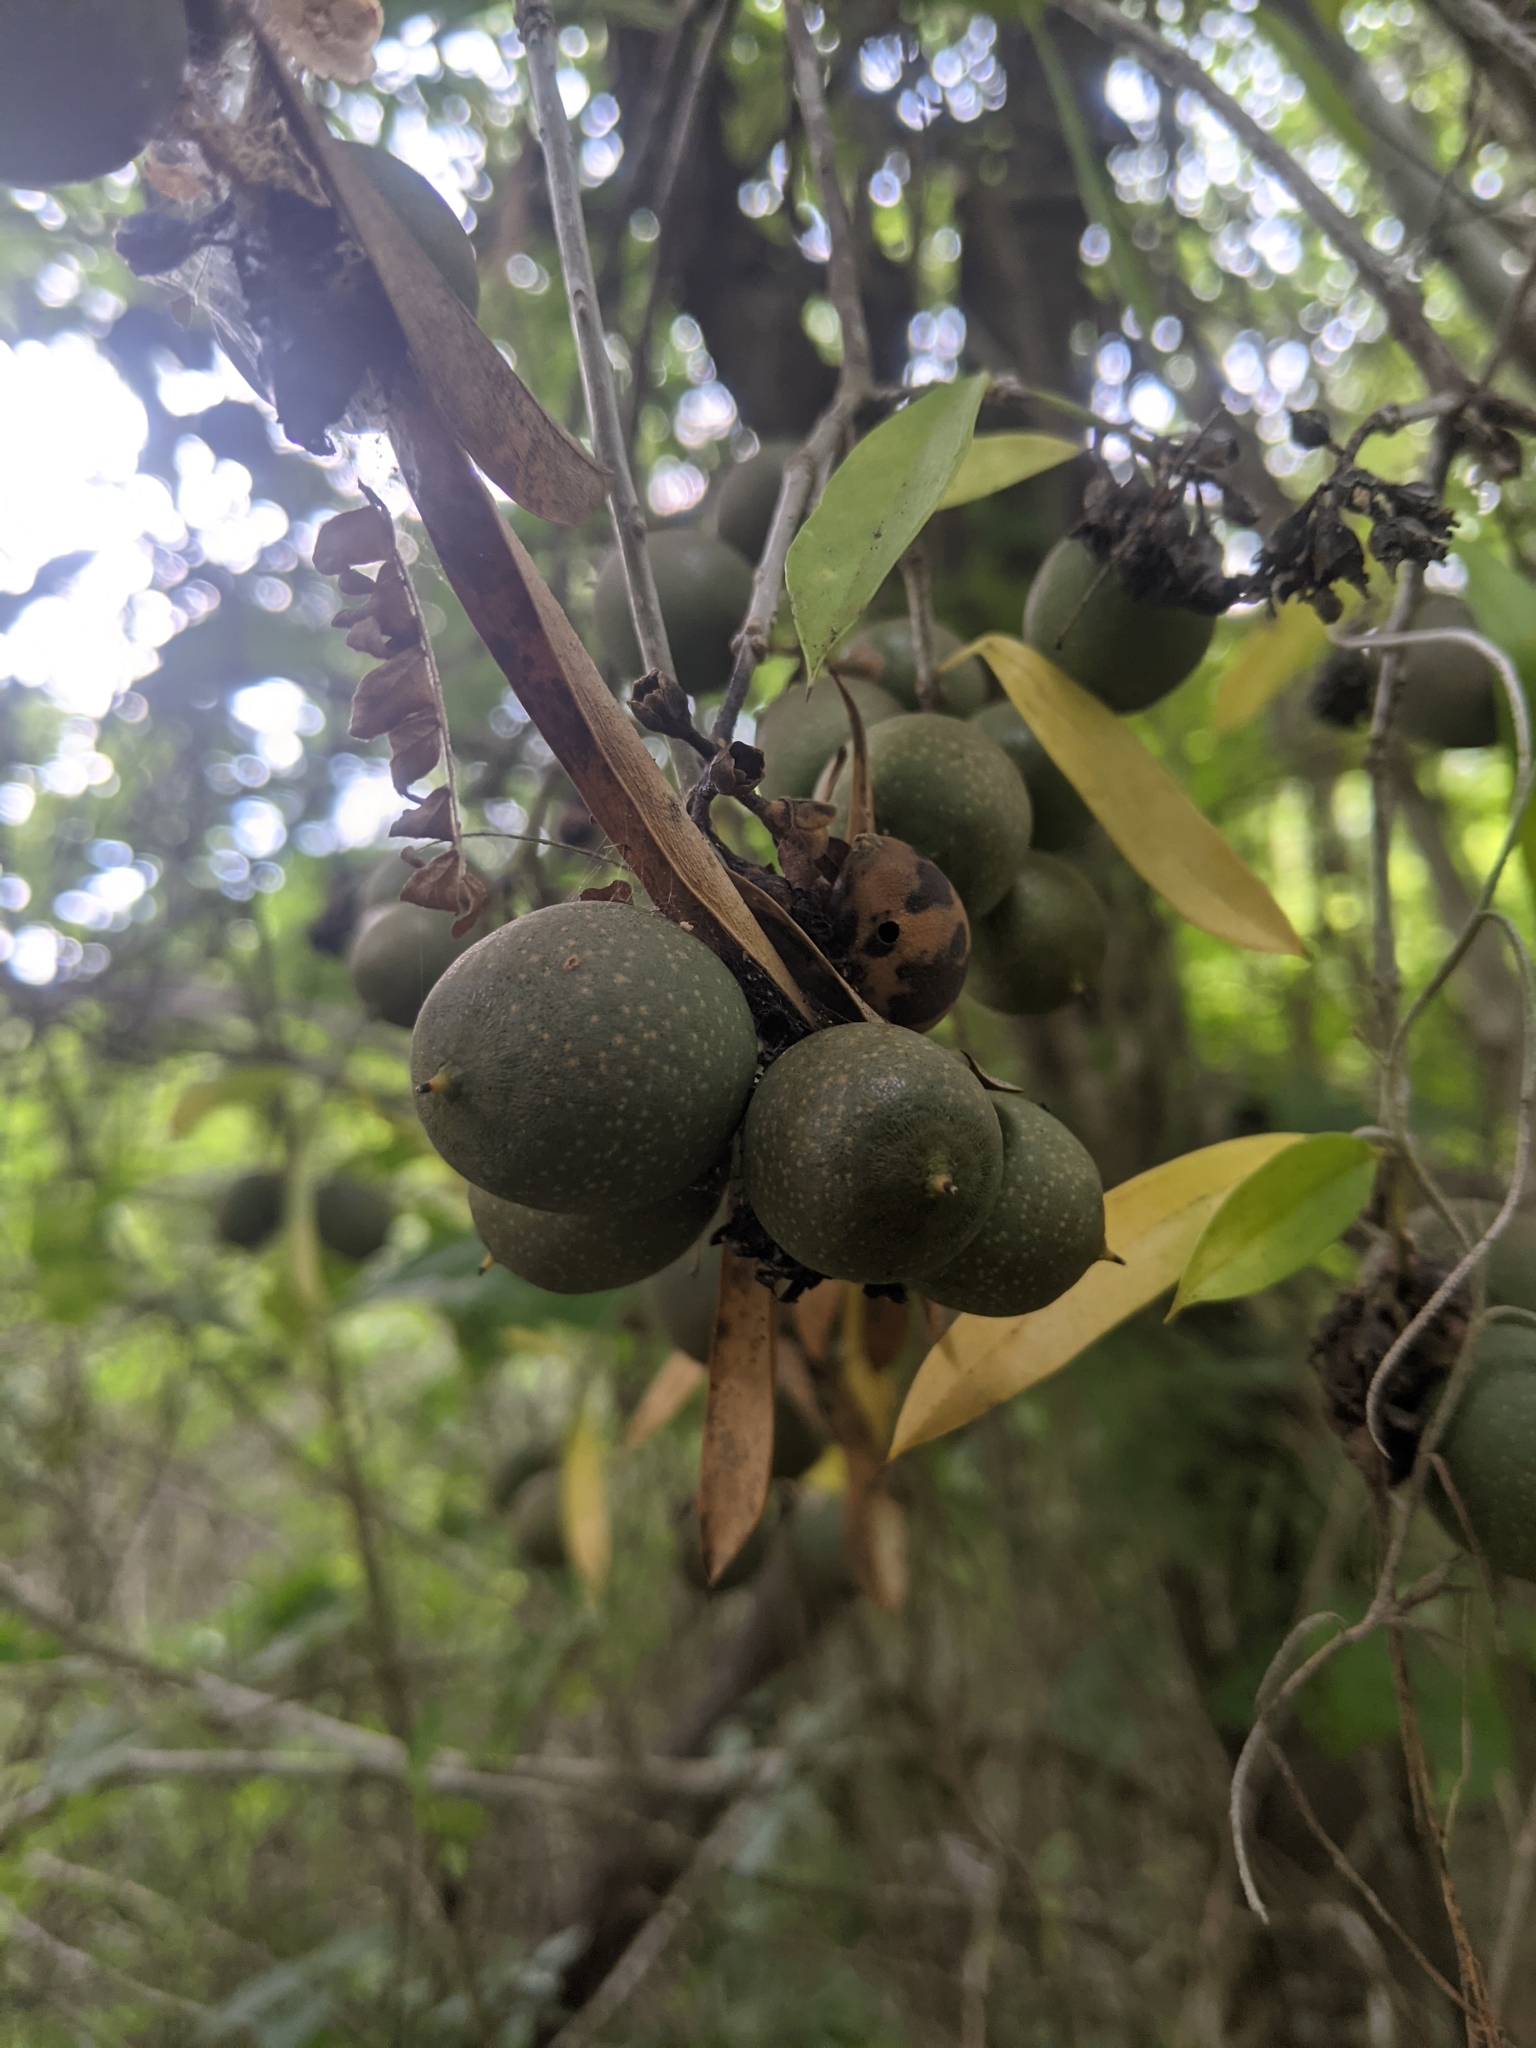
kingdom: Plantae
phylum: Tracheophyta
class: Magnoliopsida
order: Ericales
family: Primulaceae
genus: Bonellia
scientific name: Bonellia macrocarpa
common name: Primrose
